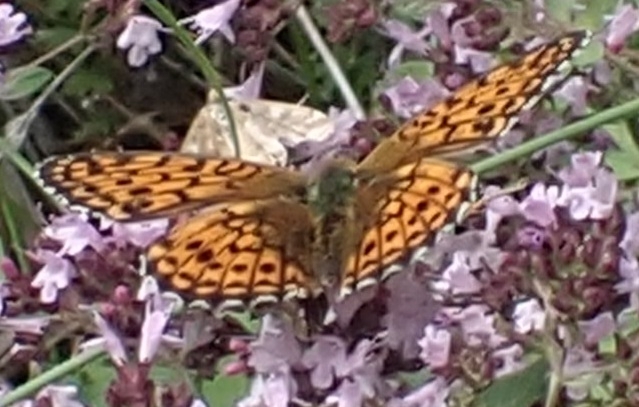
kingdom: Animalia
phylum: Arthropoda
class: Insecta
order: Lepidoptera
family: Nymphalidae
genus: Brenthis
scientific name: Brenthis ino
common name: Lesser marbled fritillary
